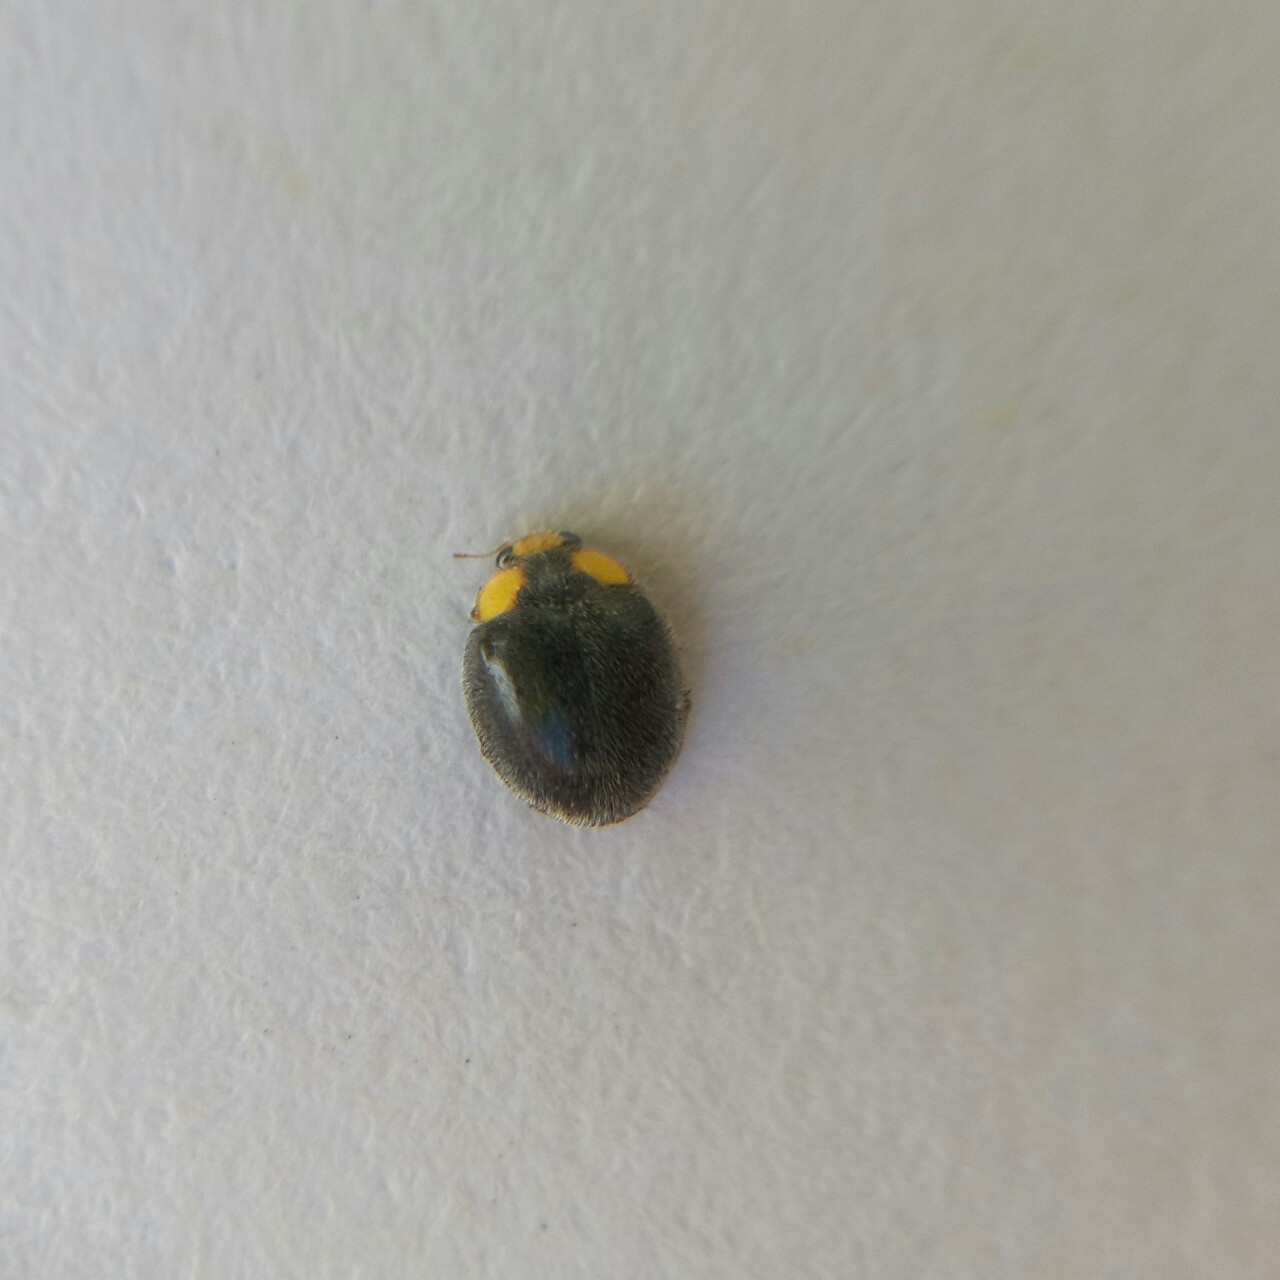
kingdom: Animalia
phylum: Arthropoda
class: Insecta
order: Coleoptera
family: Coccinellidae
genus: Scymnodes
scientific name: Scymnodes lividigaster
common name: Yellowshouldered lady beetle
